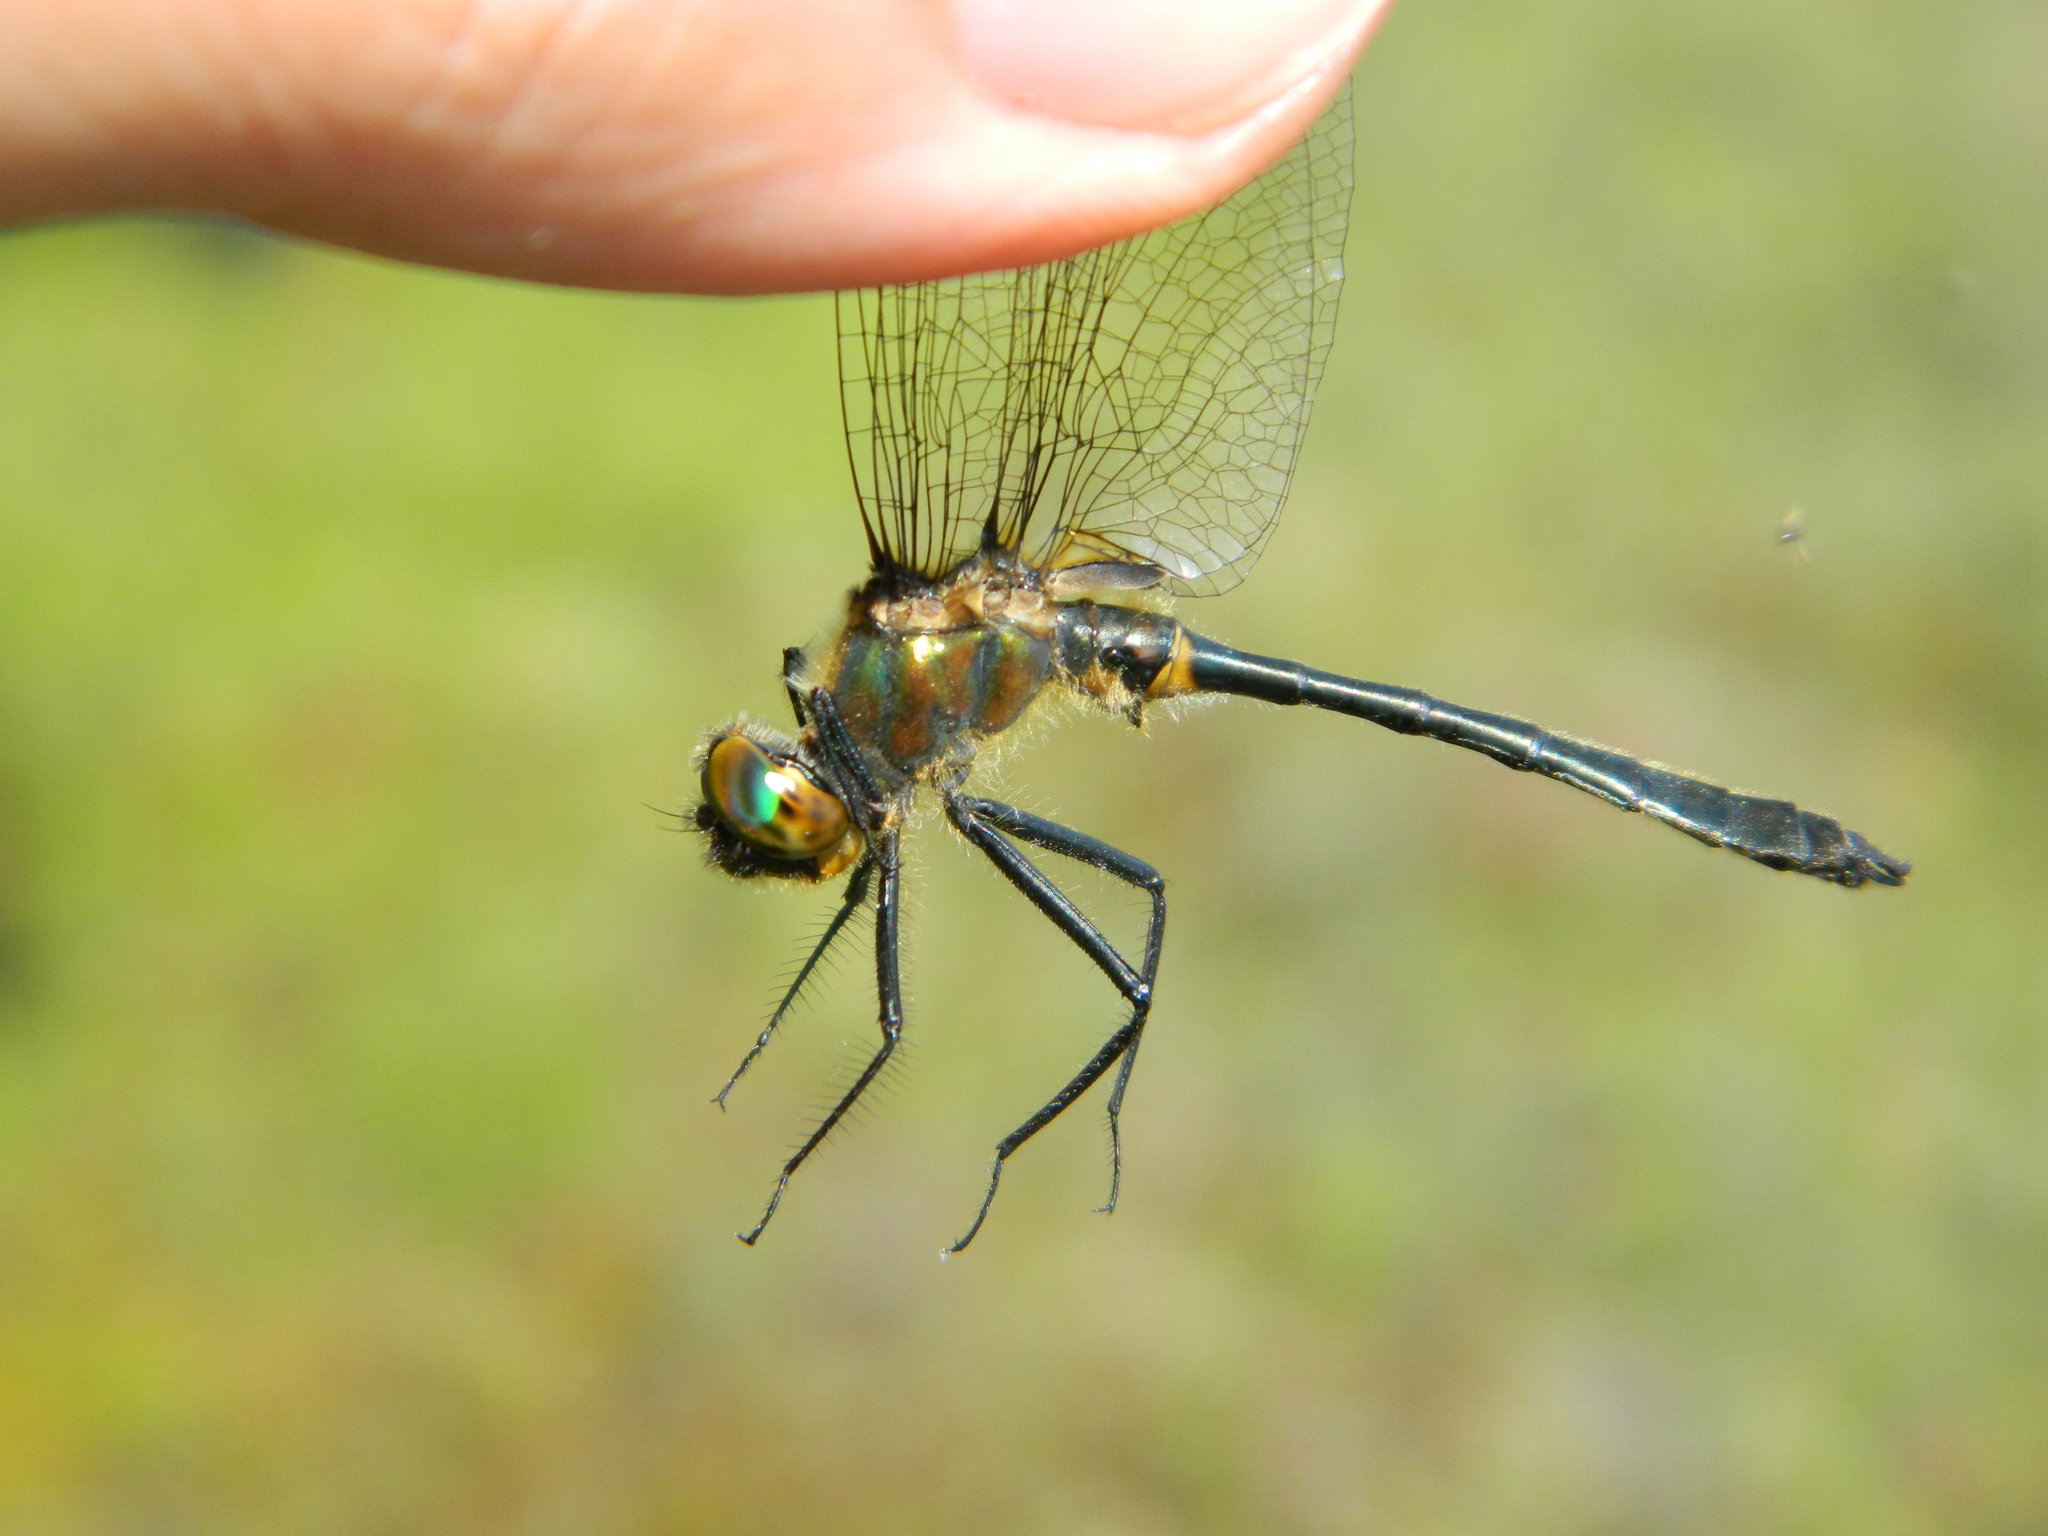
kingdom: Animalia
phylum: Arthropoda
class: Insecta
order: Odonata
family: Corduliidae
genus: Dorocordulia
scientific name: Dorocordulia libera
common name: Racket-tailed emerald
